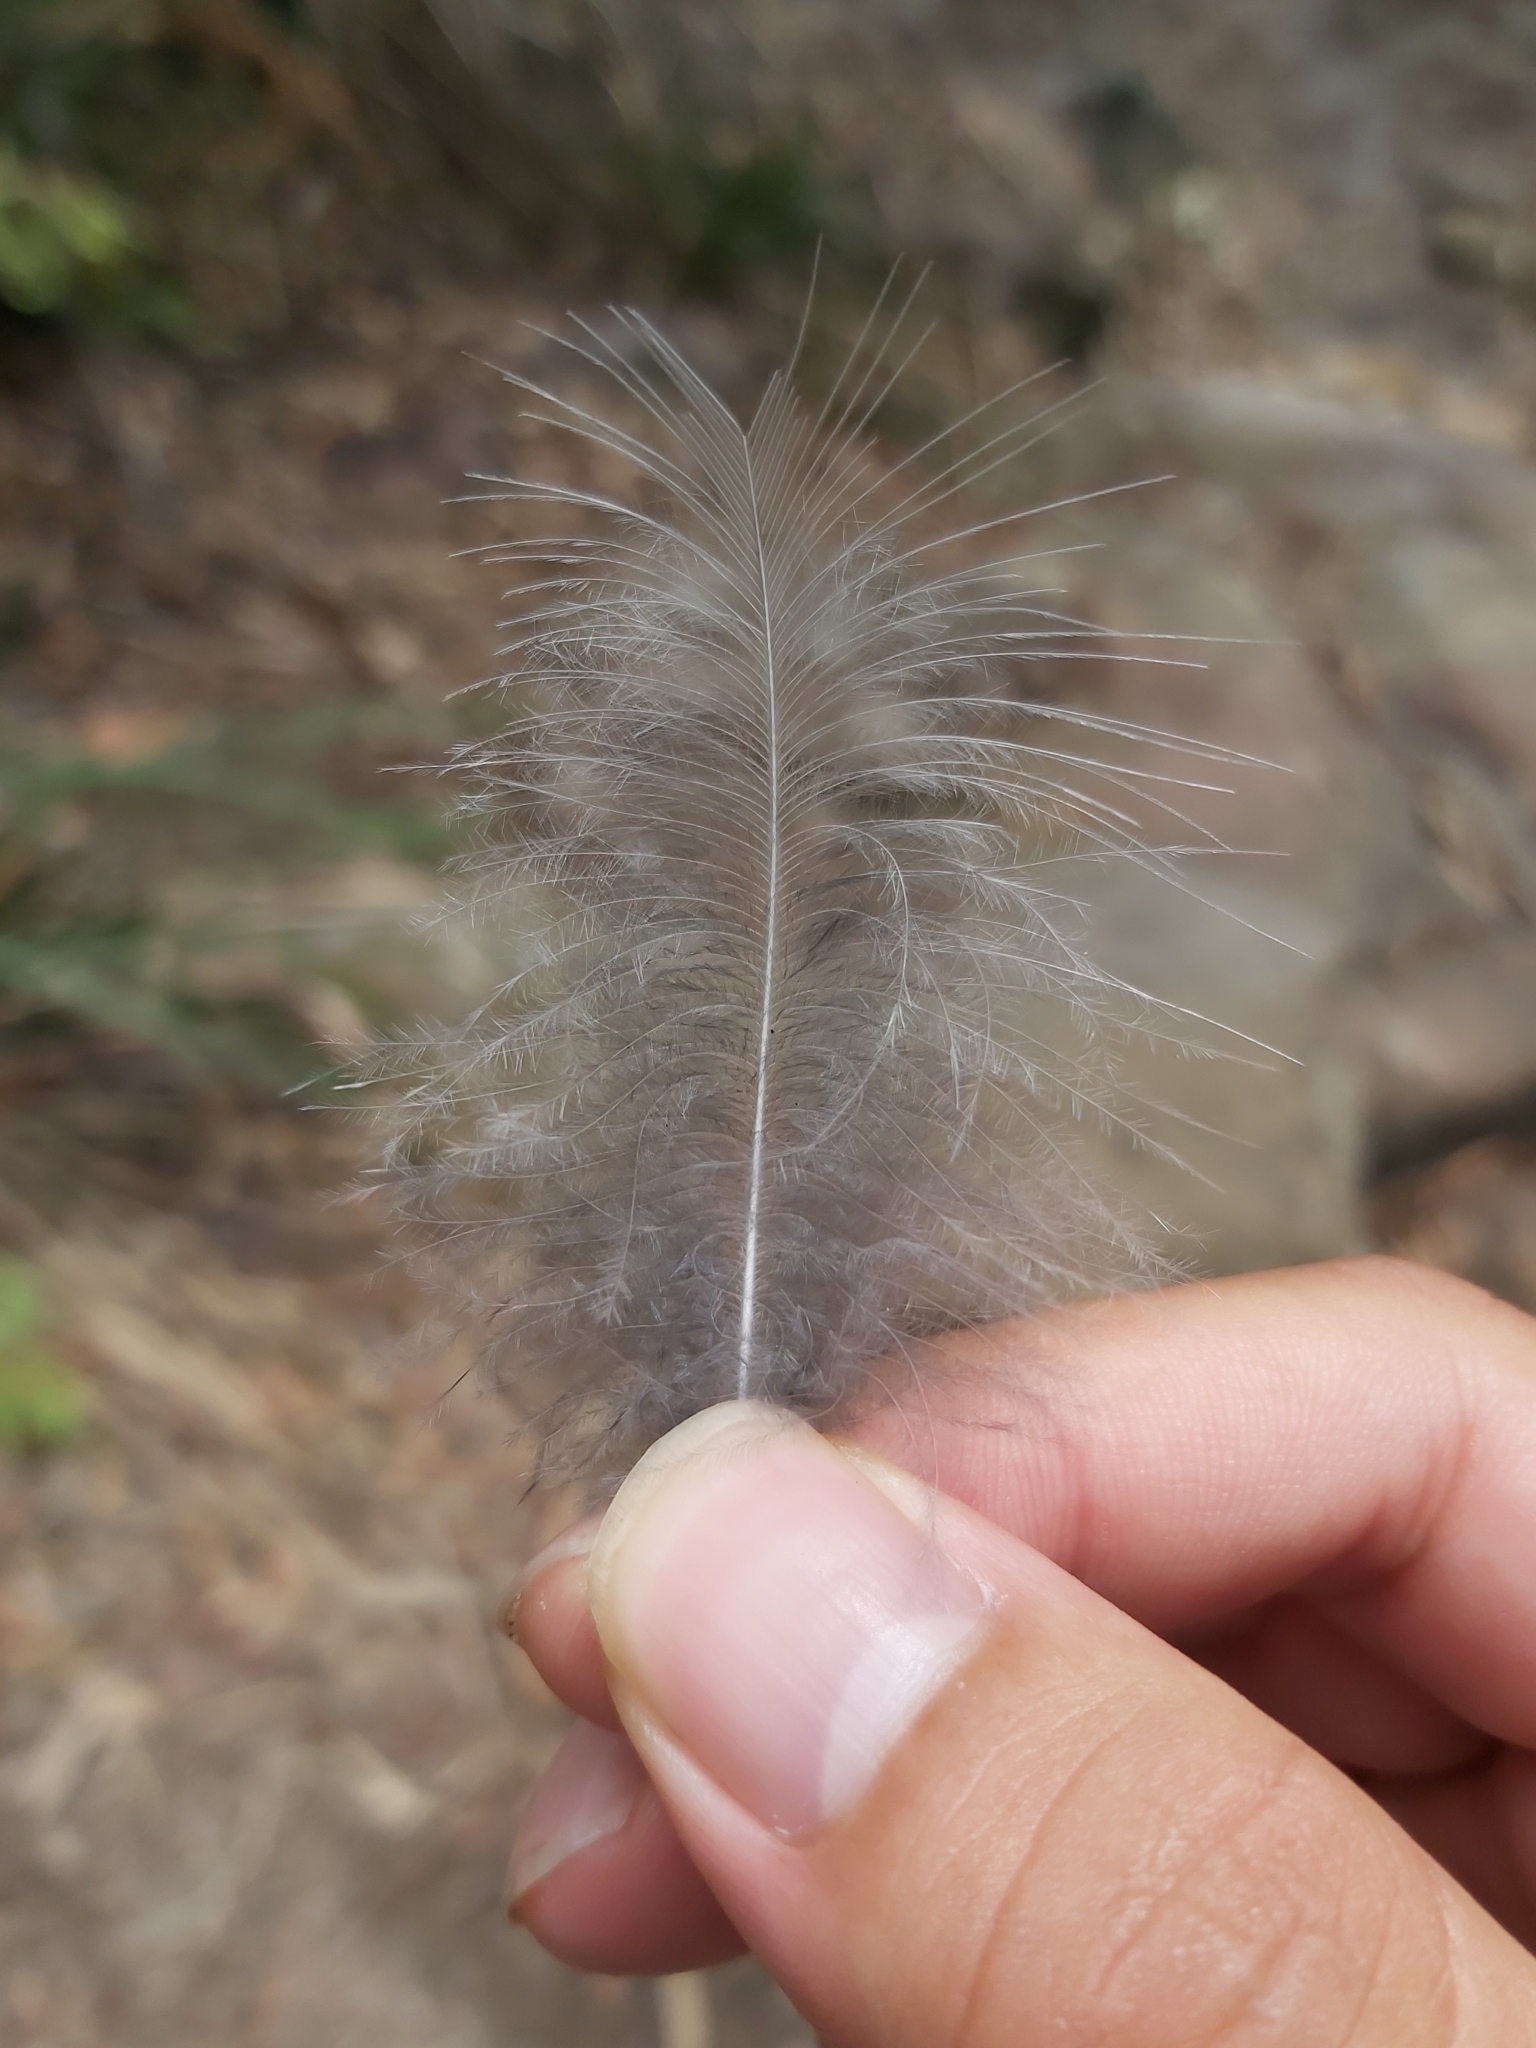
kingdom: Animalia
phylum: Chordata
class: Aves
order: Coraciiformes
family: Alcedinidae
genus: Dacelo
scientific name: Dacelo novaeguineae
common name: Laughing kookaburra
